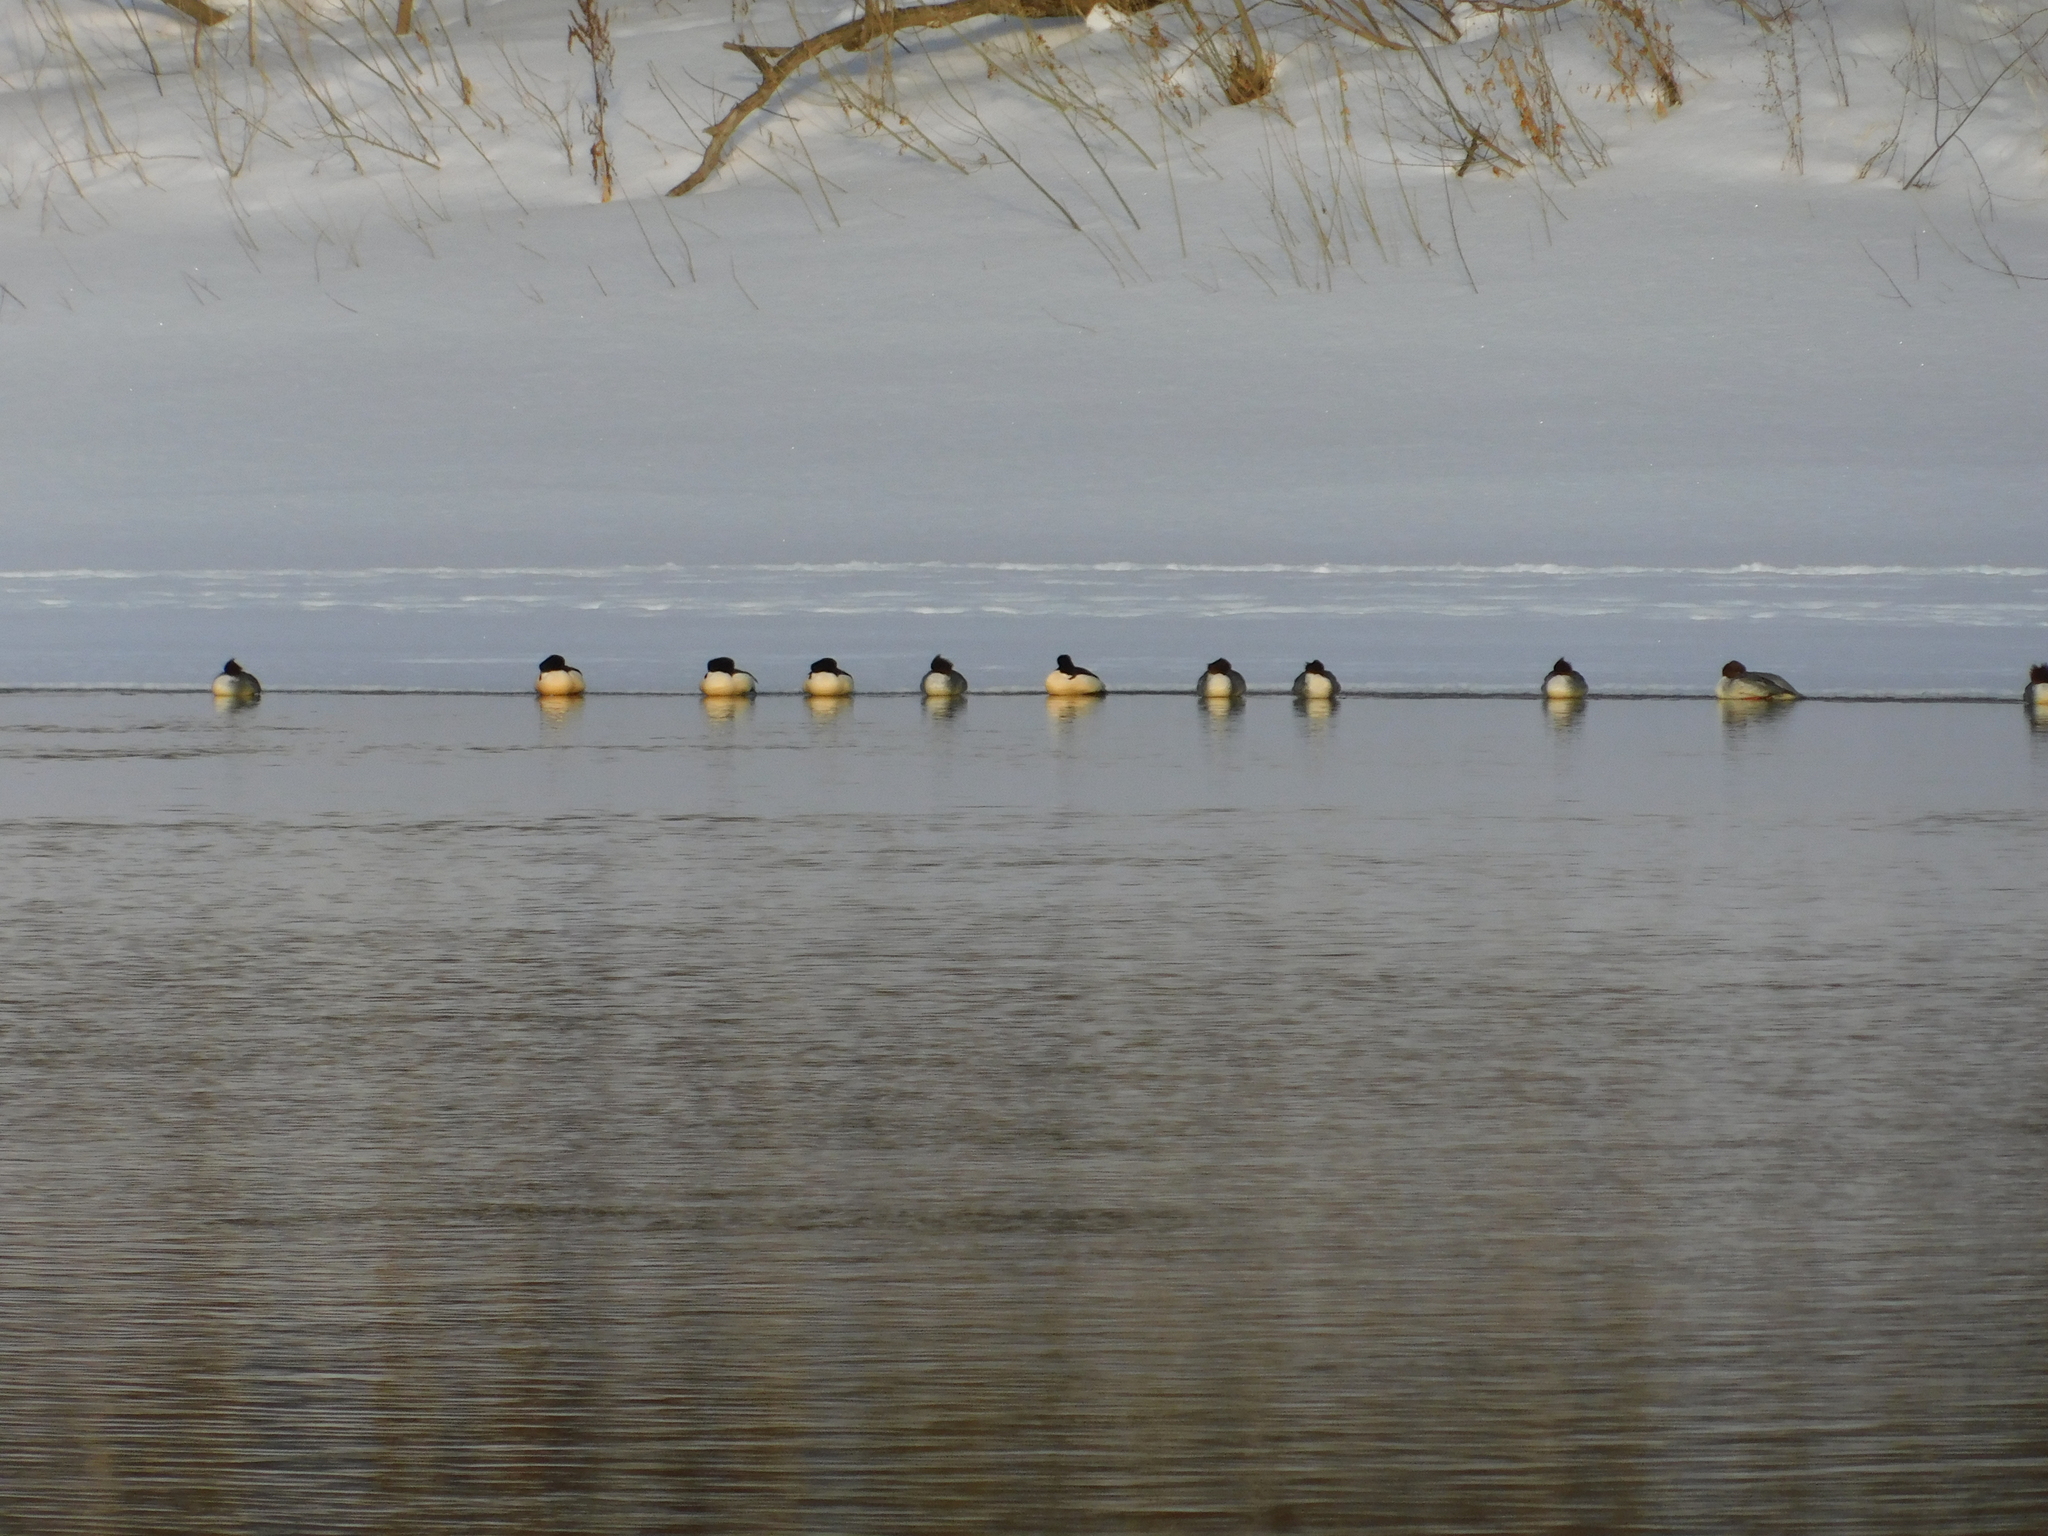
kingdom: Animalia
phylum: Chordata
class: Aves
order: Anseriformes
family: Anatidae
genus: Mergus
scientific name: Mergus merganser
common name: Common merganser
